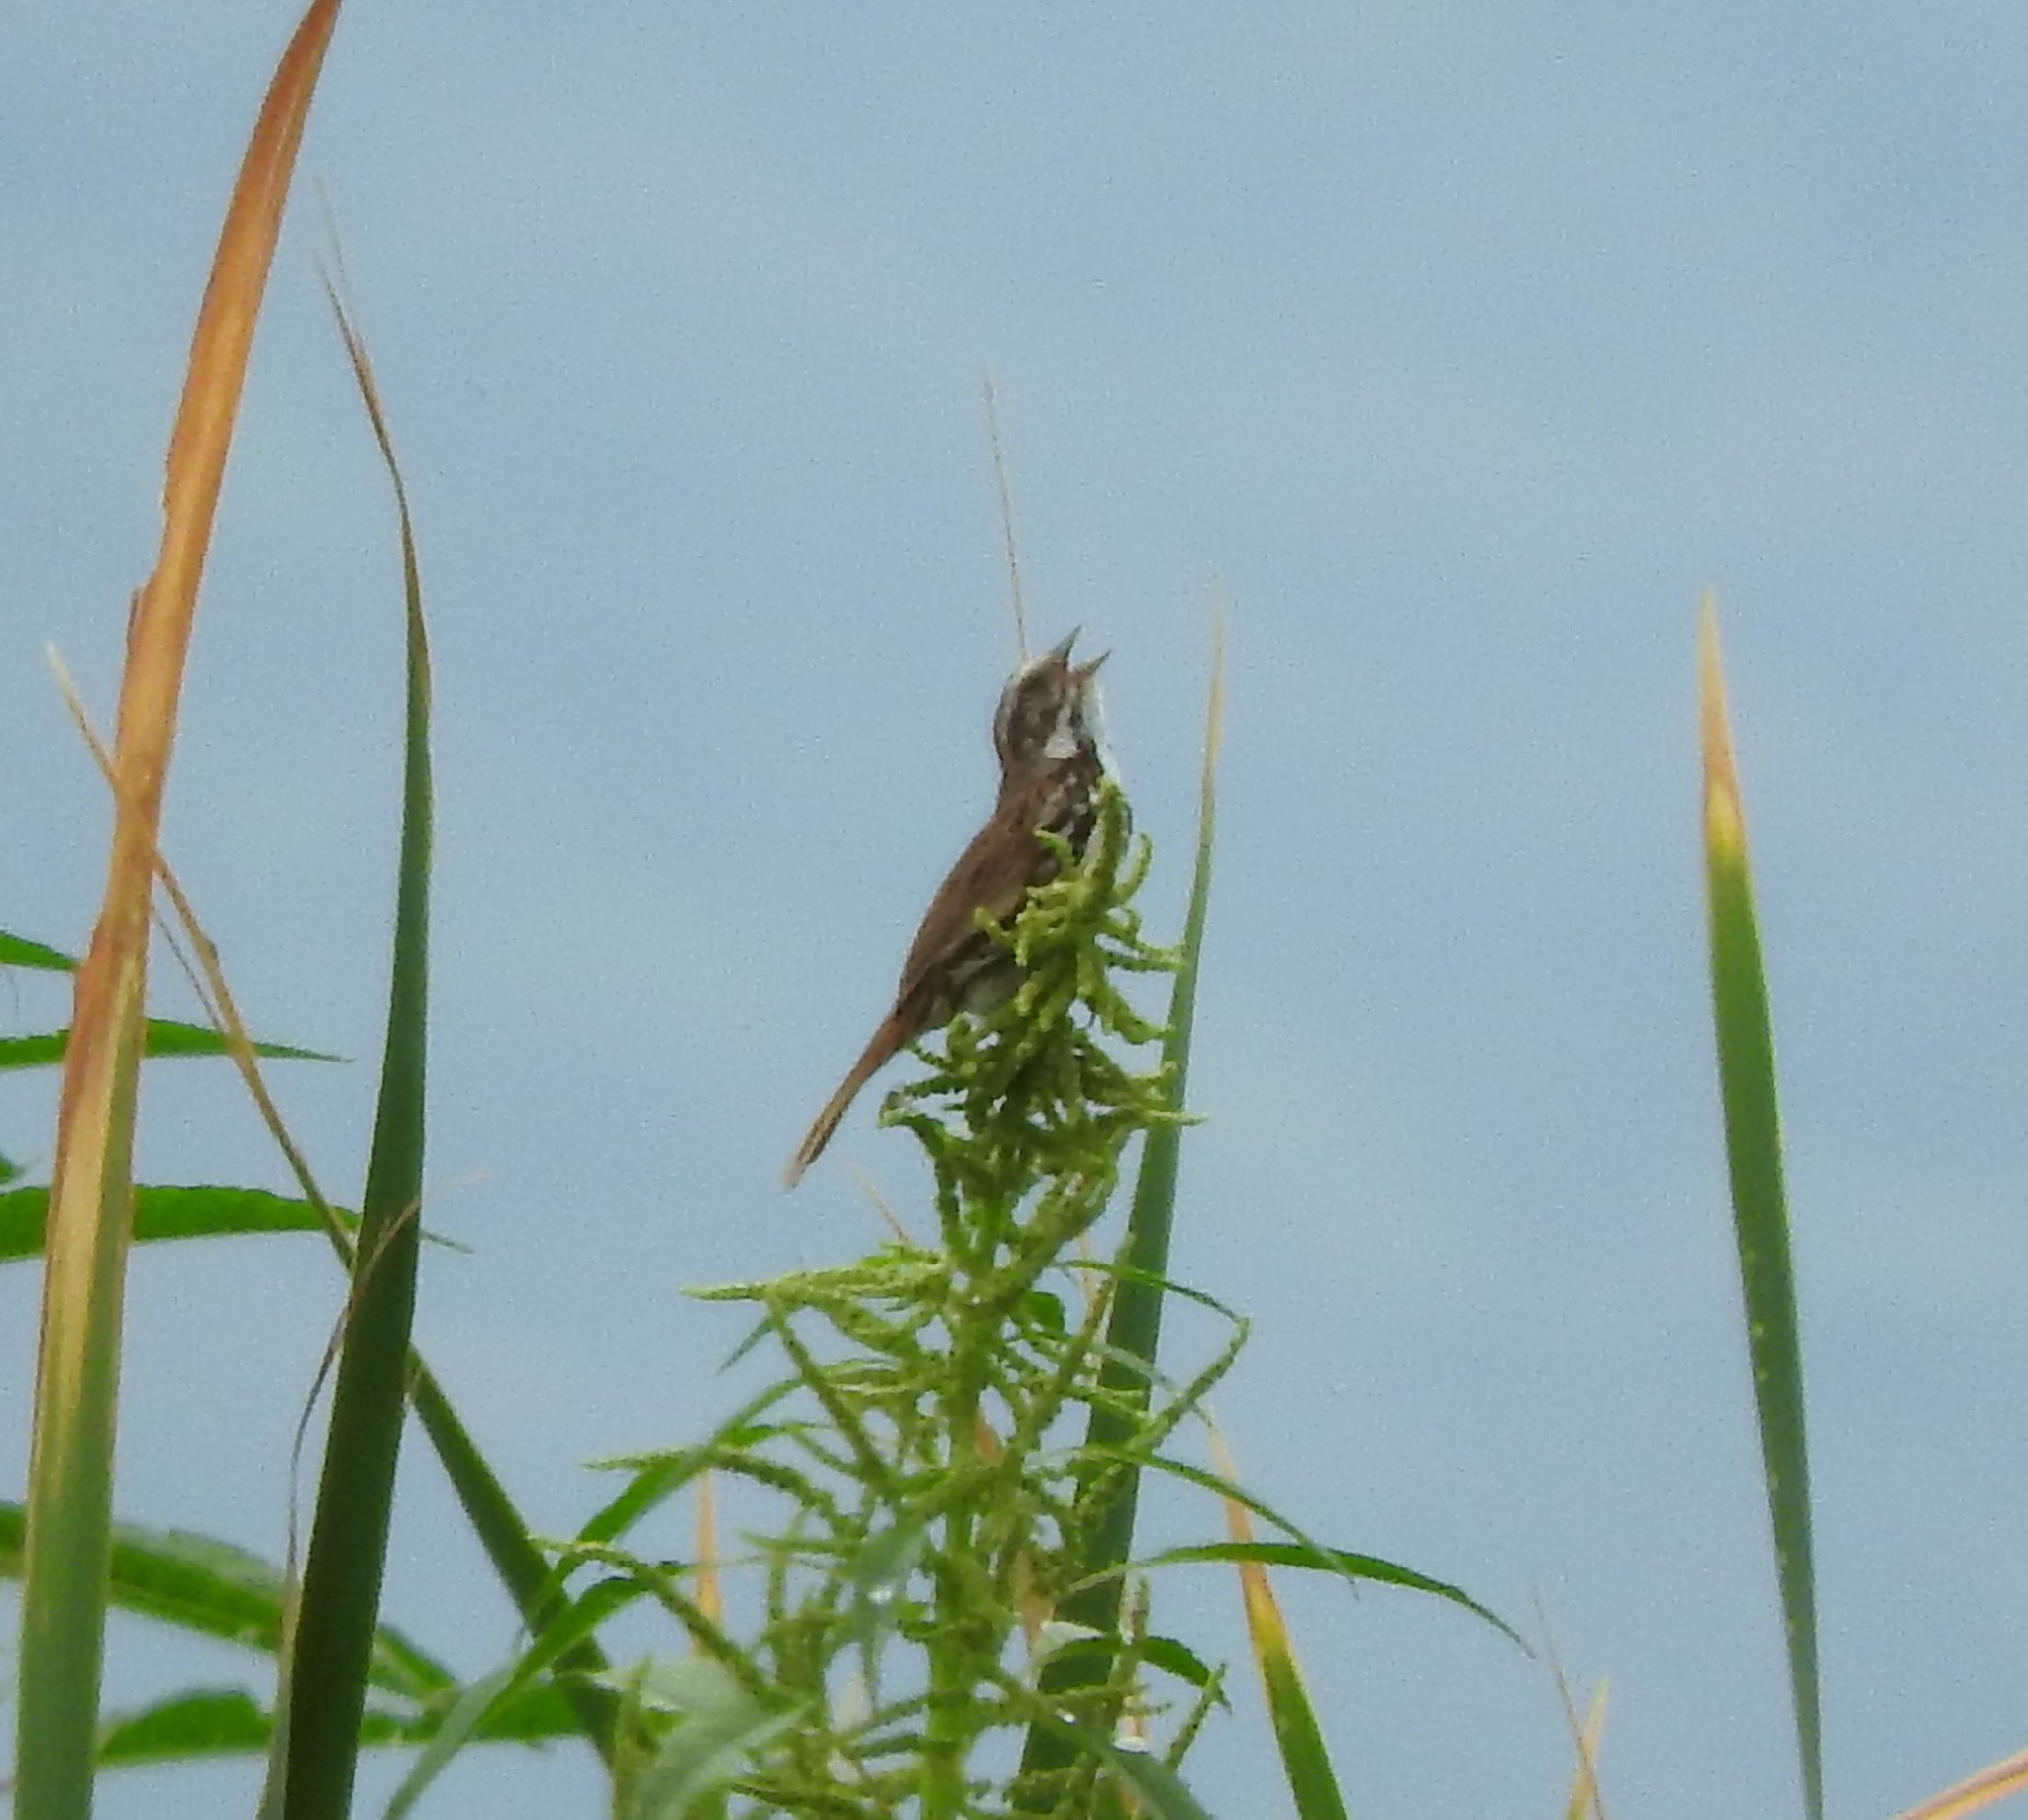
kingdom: Animalia
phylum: Chordata
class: Aves
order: Passeriformes
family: Passerellidae
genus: Melospiza
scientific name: Melospiza melodia
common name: Song sparrow
